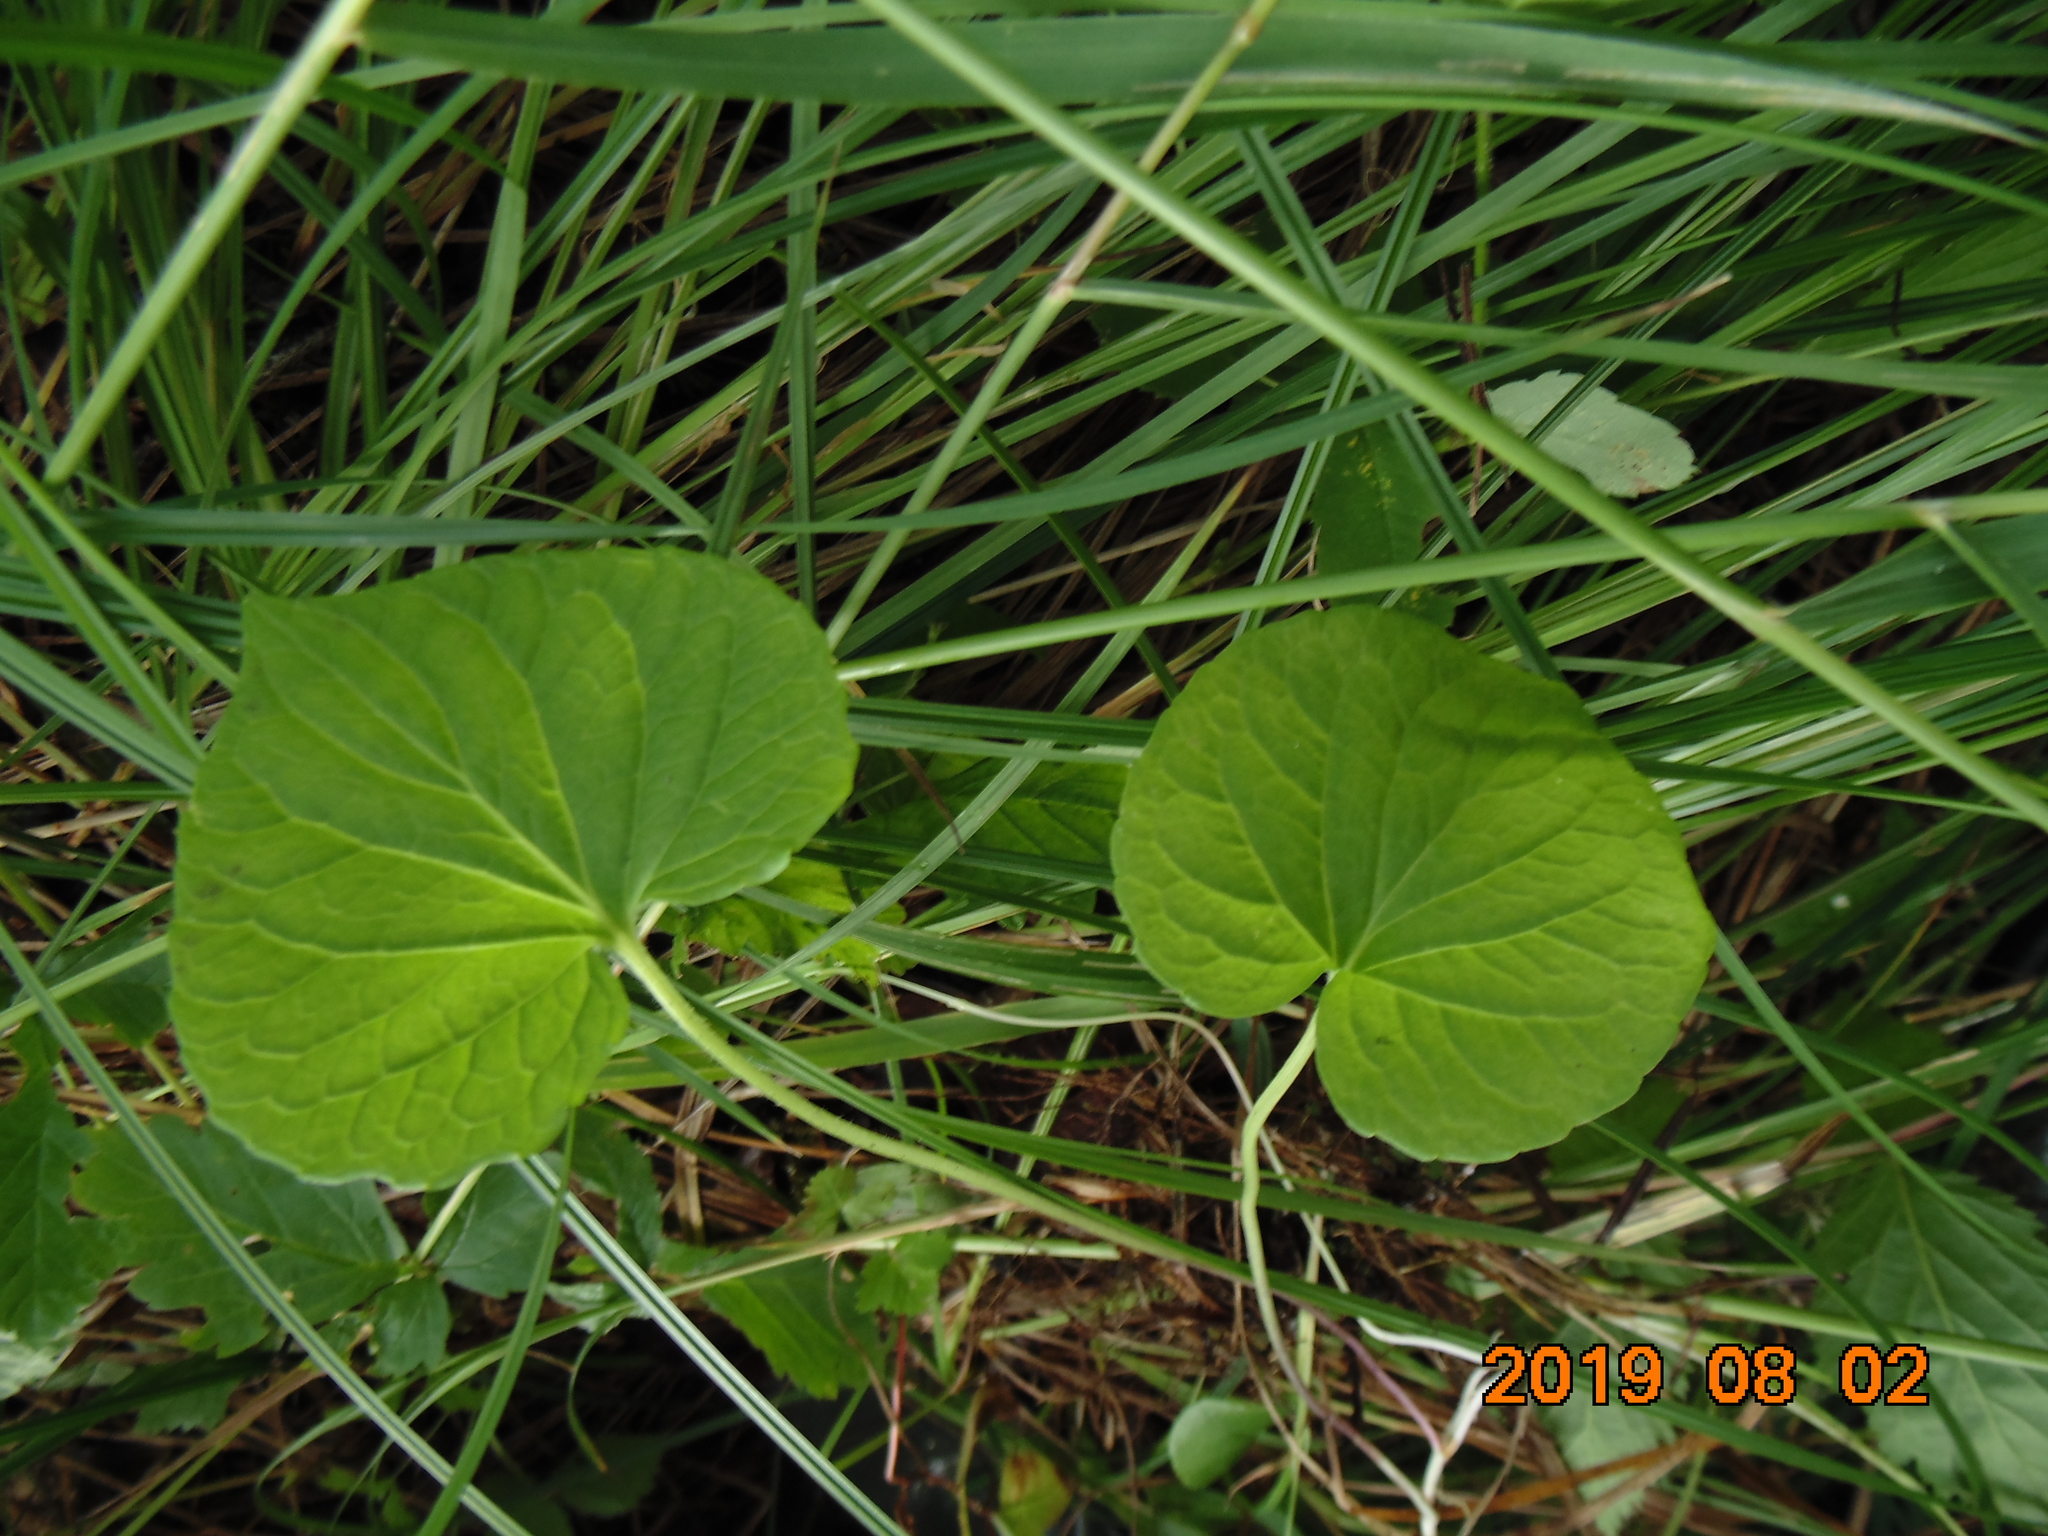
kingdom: Plantae
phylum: Tracheophyta
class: Magnoliopsida
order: Malpighiales
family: Violaceae
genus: Viola
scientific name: Viola epipsila
